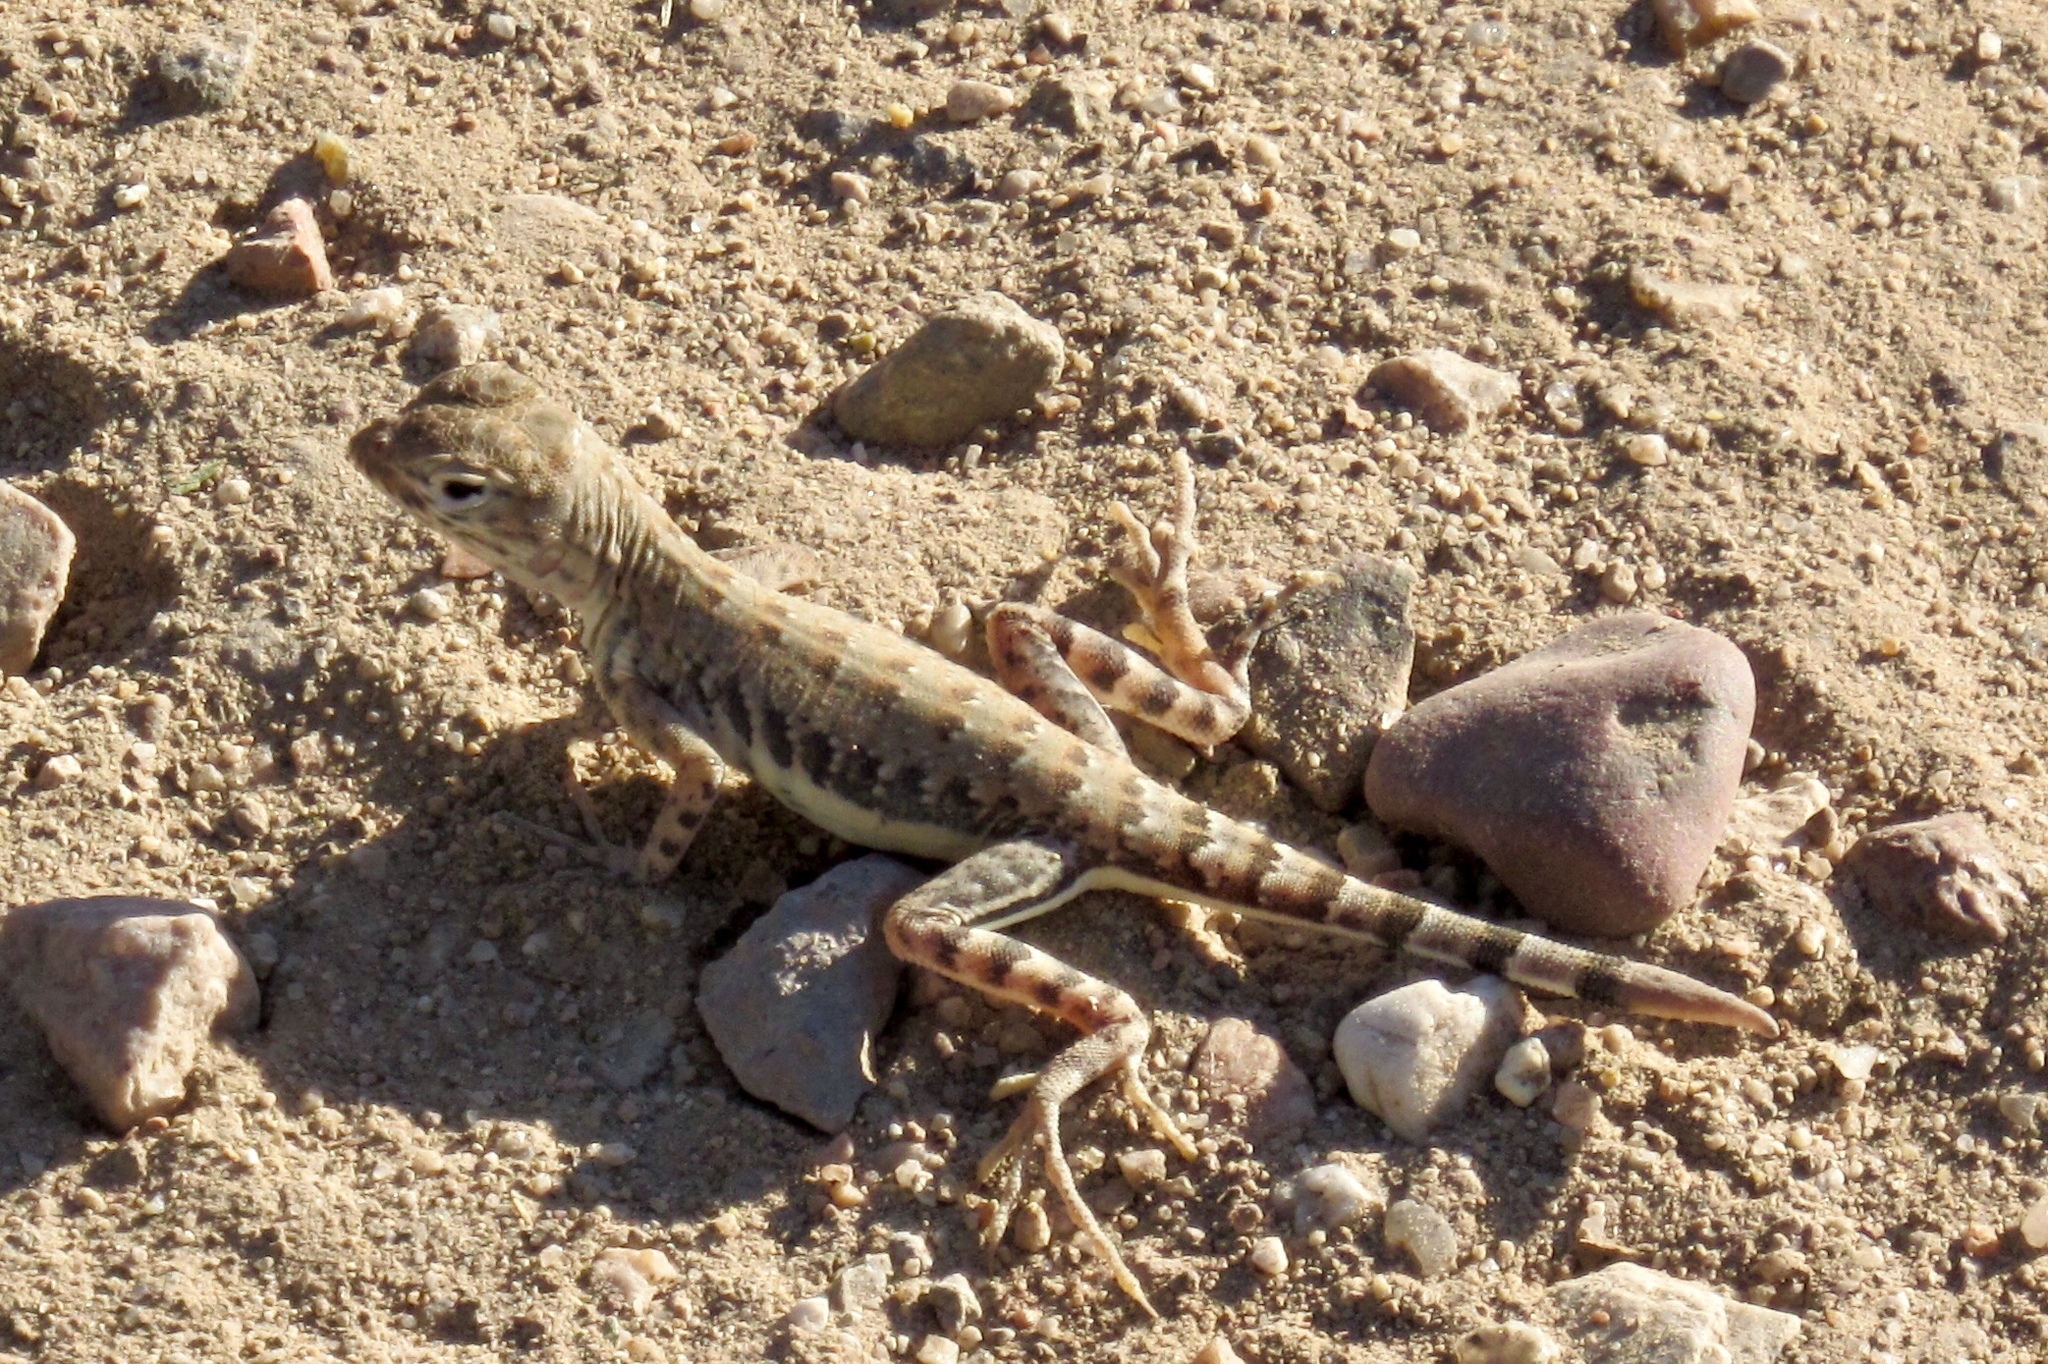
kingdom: Animalia
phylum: Chordata
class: Squamata
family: Phrynosomatidae
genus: Holbrookia
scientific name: Holbrookia elegans
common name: Elegant earless lizard
